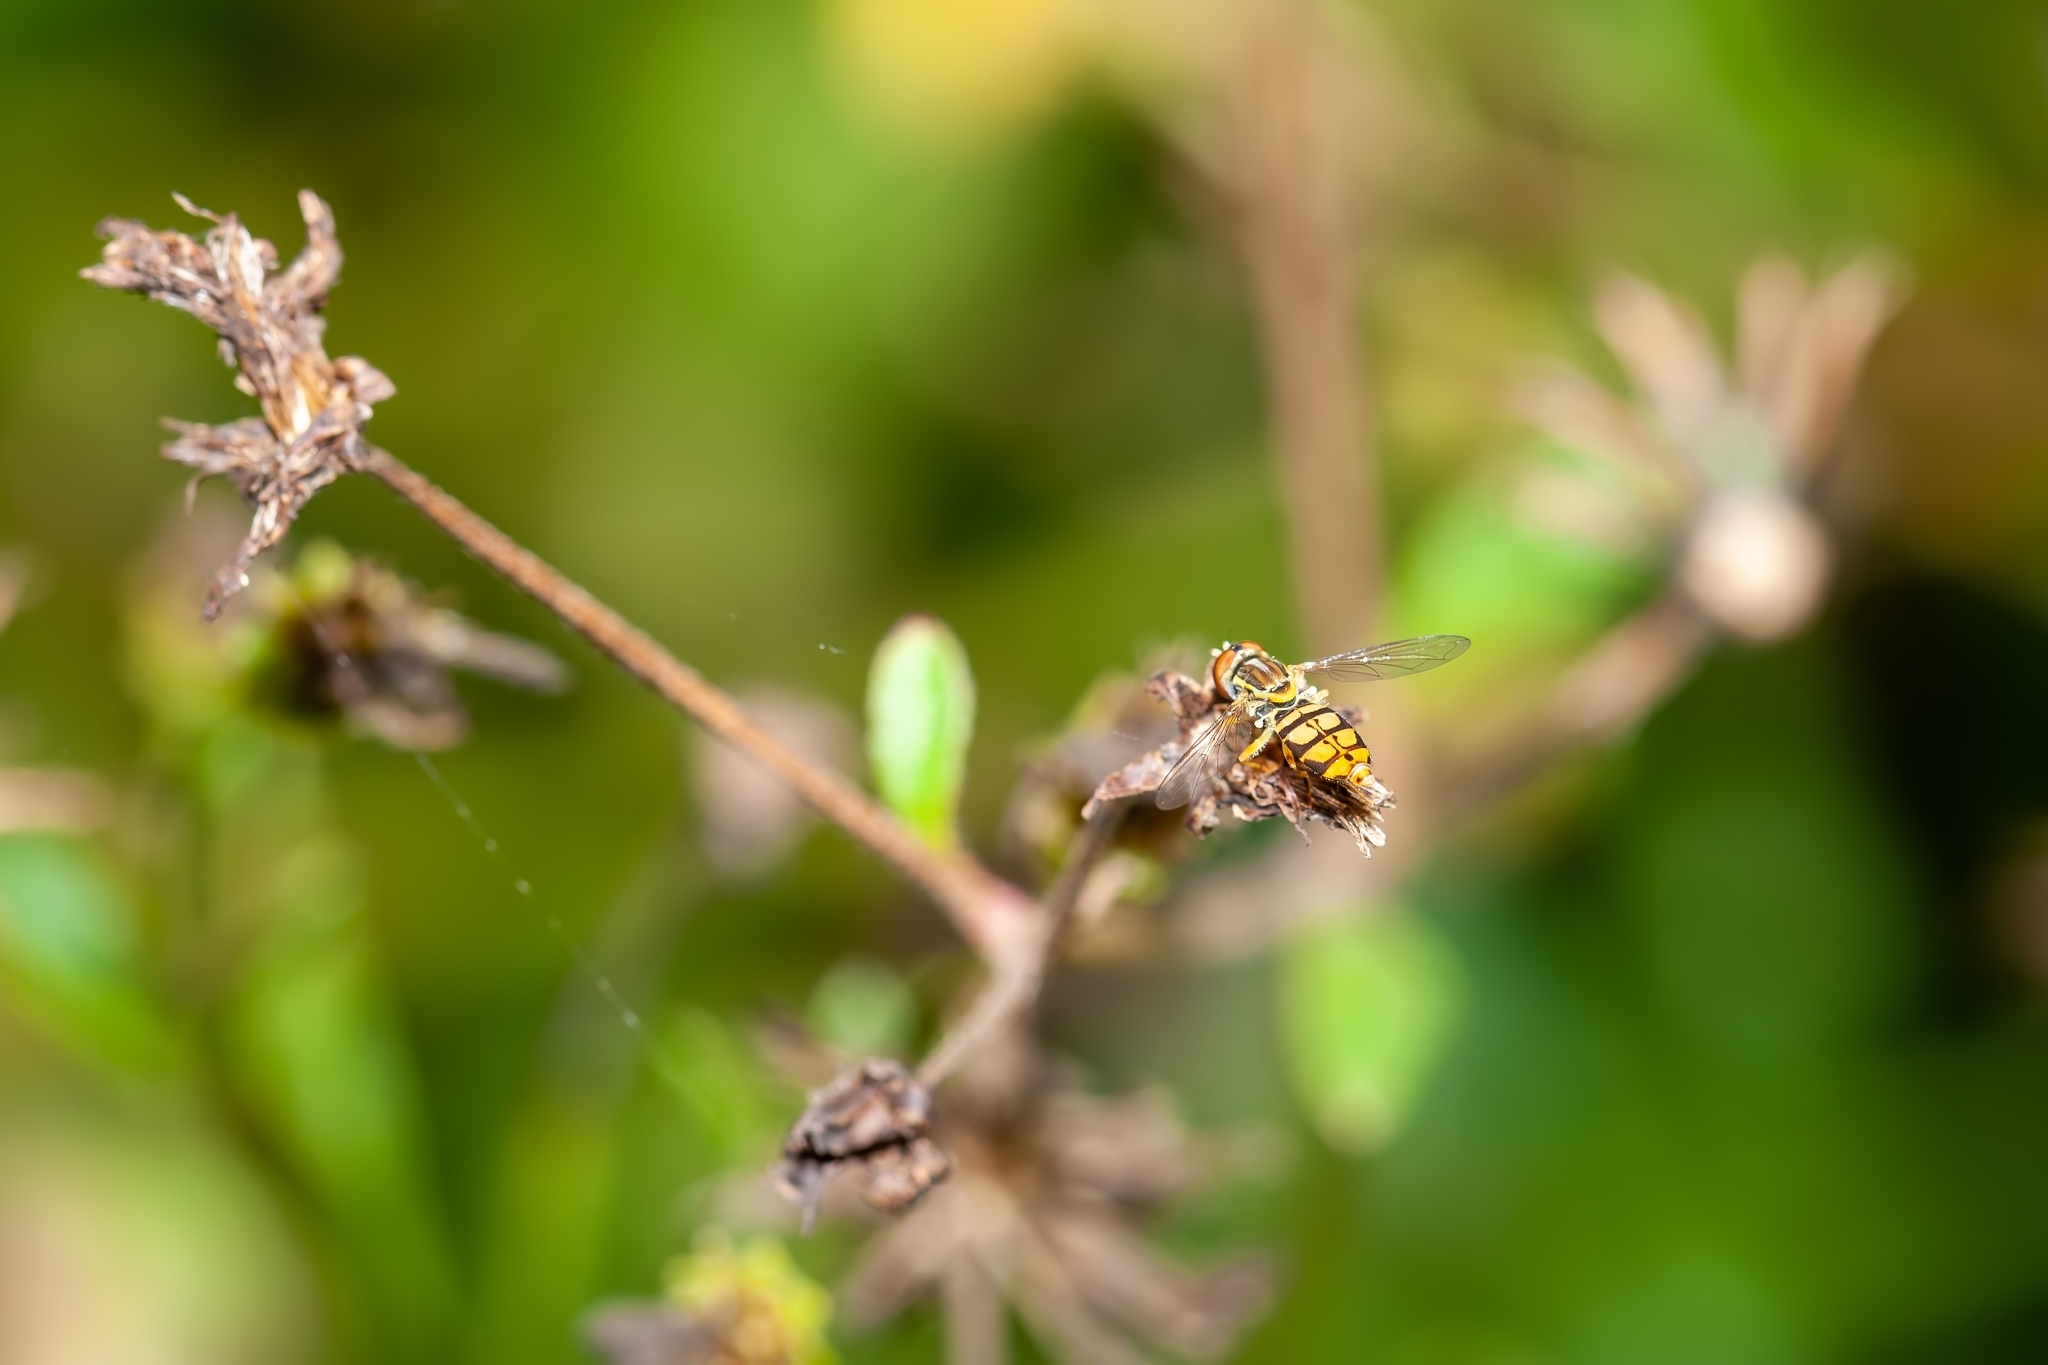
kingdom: Animalia
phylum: Arthropoda
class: Insecta
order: Diptera
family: Syrphidae
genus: Toxomerus
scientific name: Toxomerus floralis
